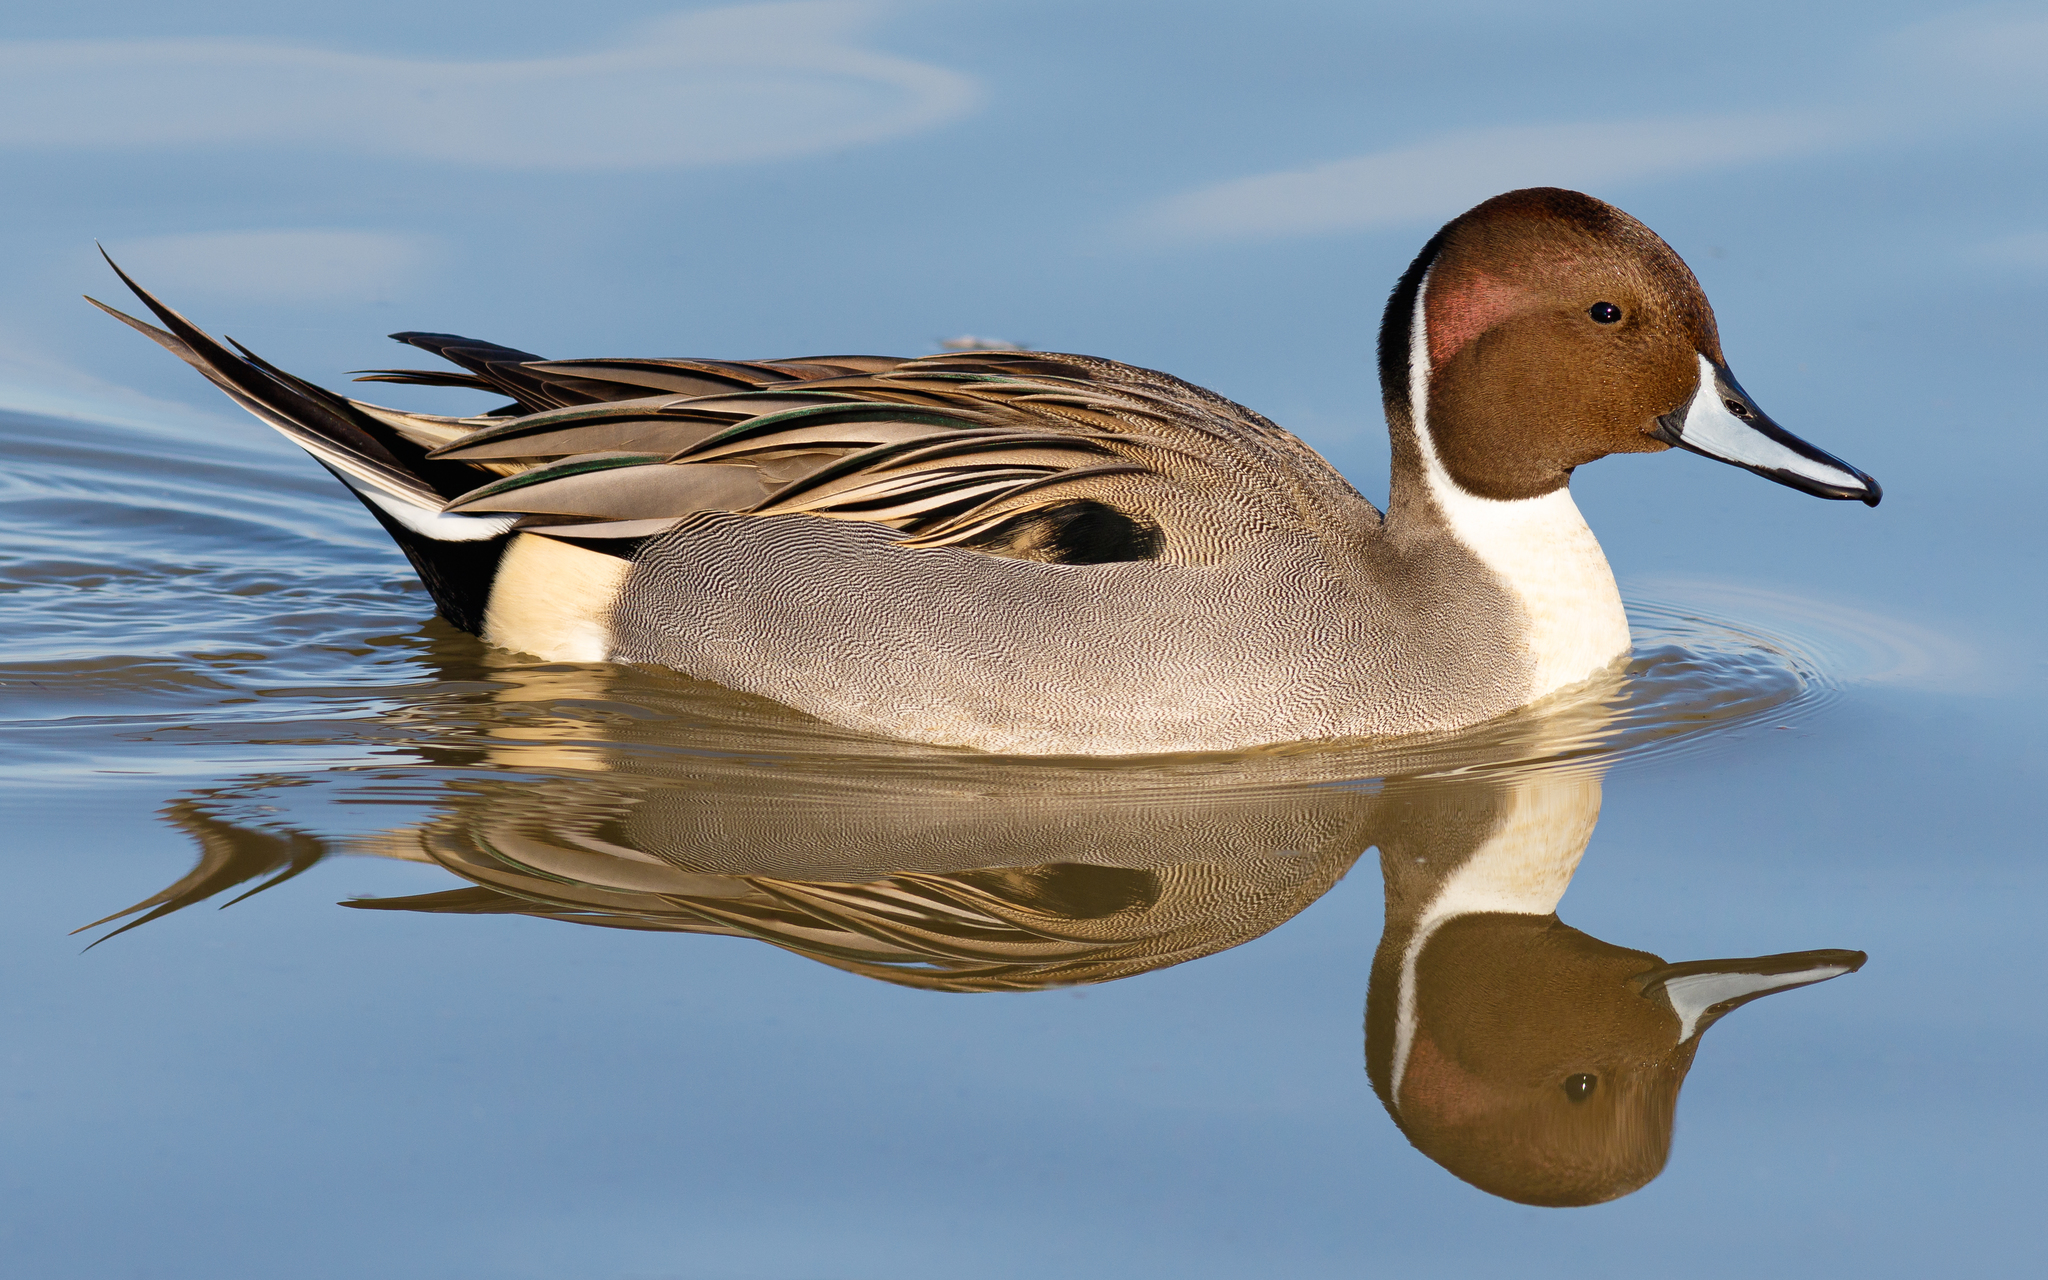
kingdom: Animalia
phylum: Chordata
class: Aves
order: Anseriformes
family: Anatidae
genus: Anas
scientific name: Anas acuta
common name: Northern pintail
